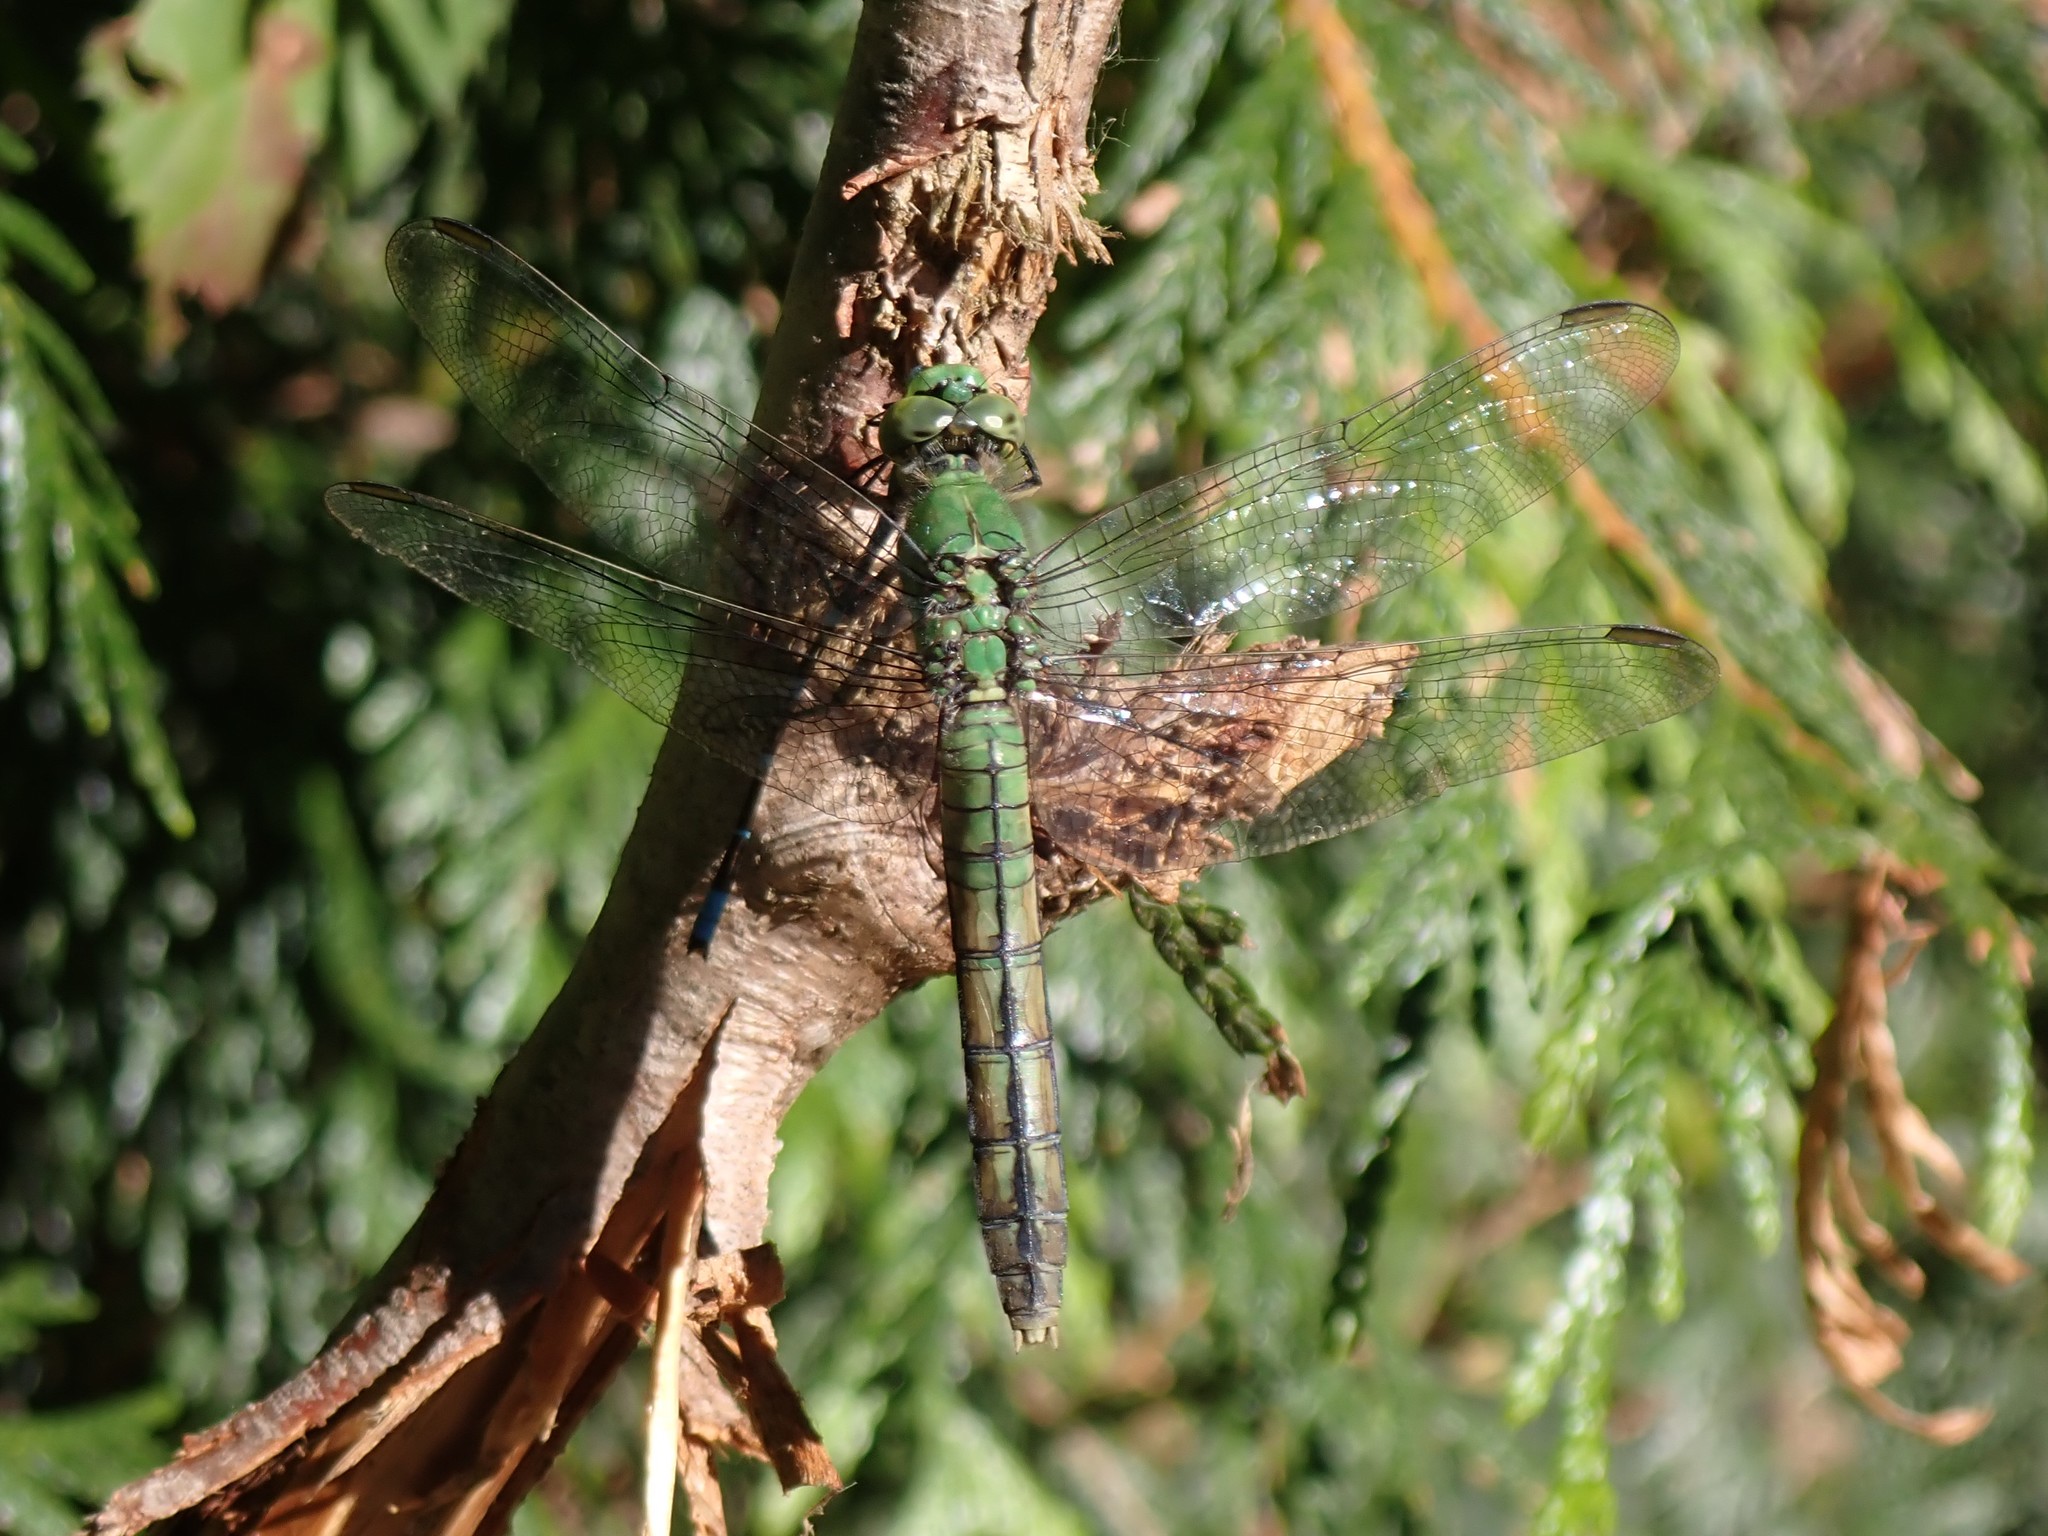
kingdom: Animalia
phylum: Arthropoda
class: Insecta
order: Odonata
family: Libellulidae
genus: Erythemis
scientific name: Erythemis collocata
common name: Western pondhawk
